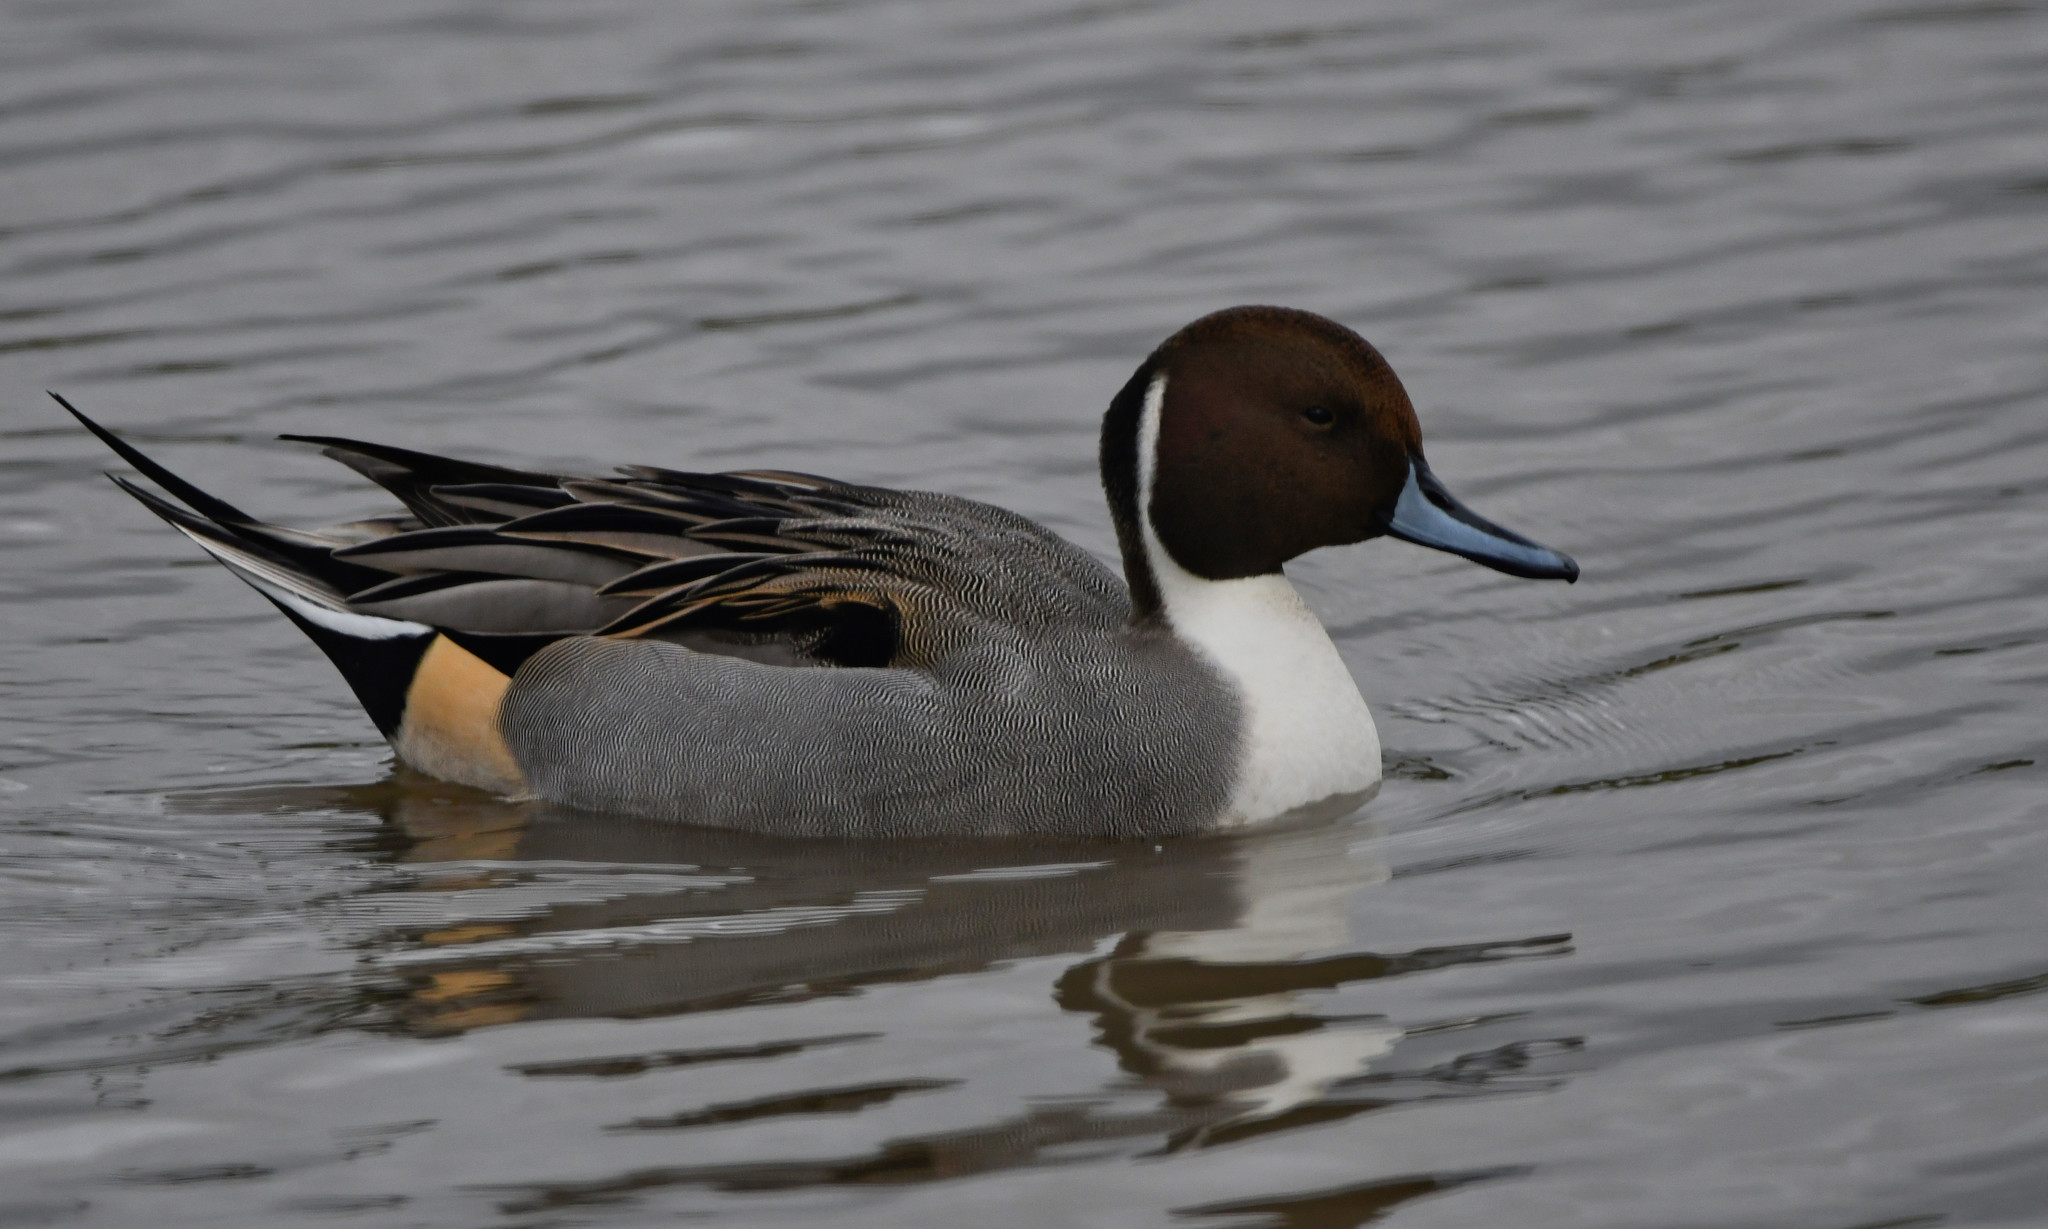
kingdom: Animalia
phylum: Chordata
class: Aves
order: Anseriformes
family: Anatidae
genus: Anas
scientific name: Anas acuta
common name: Northern pintail
